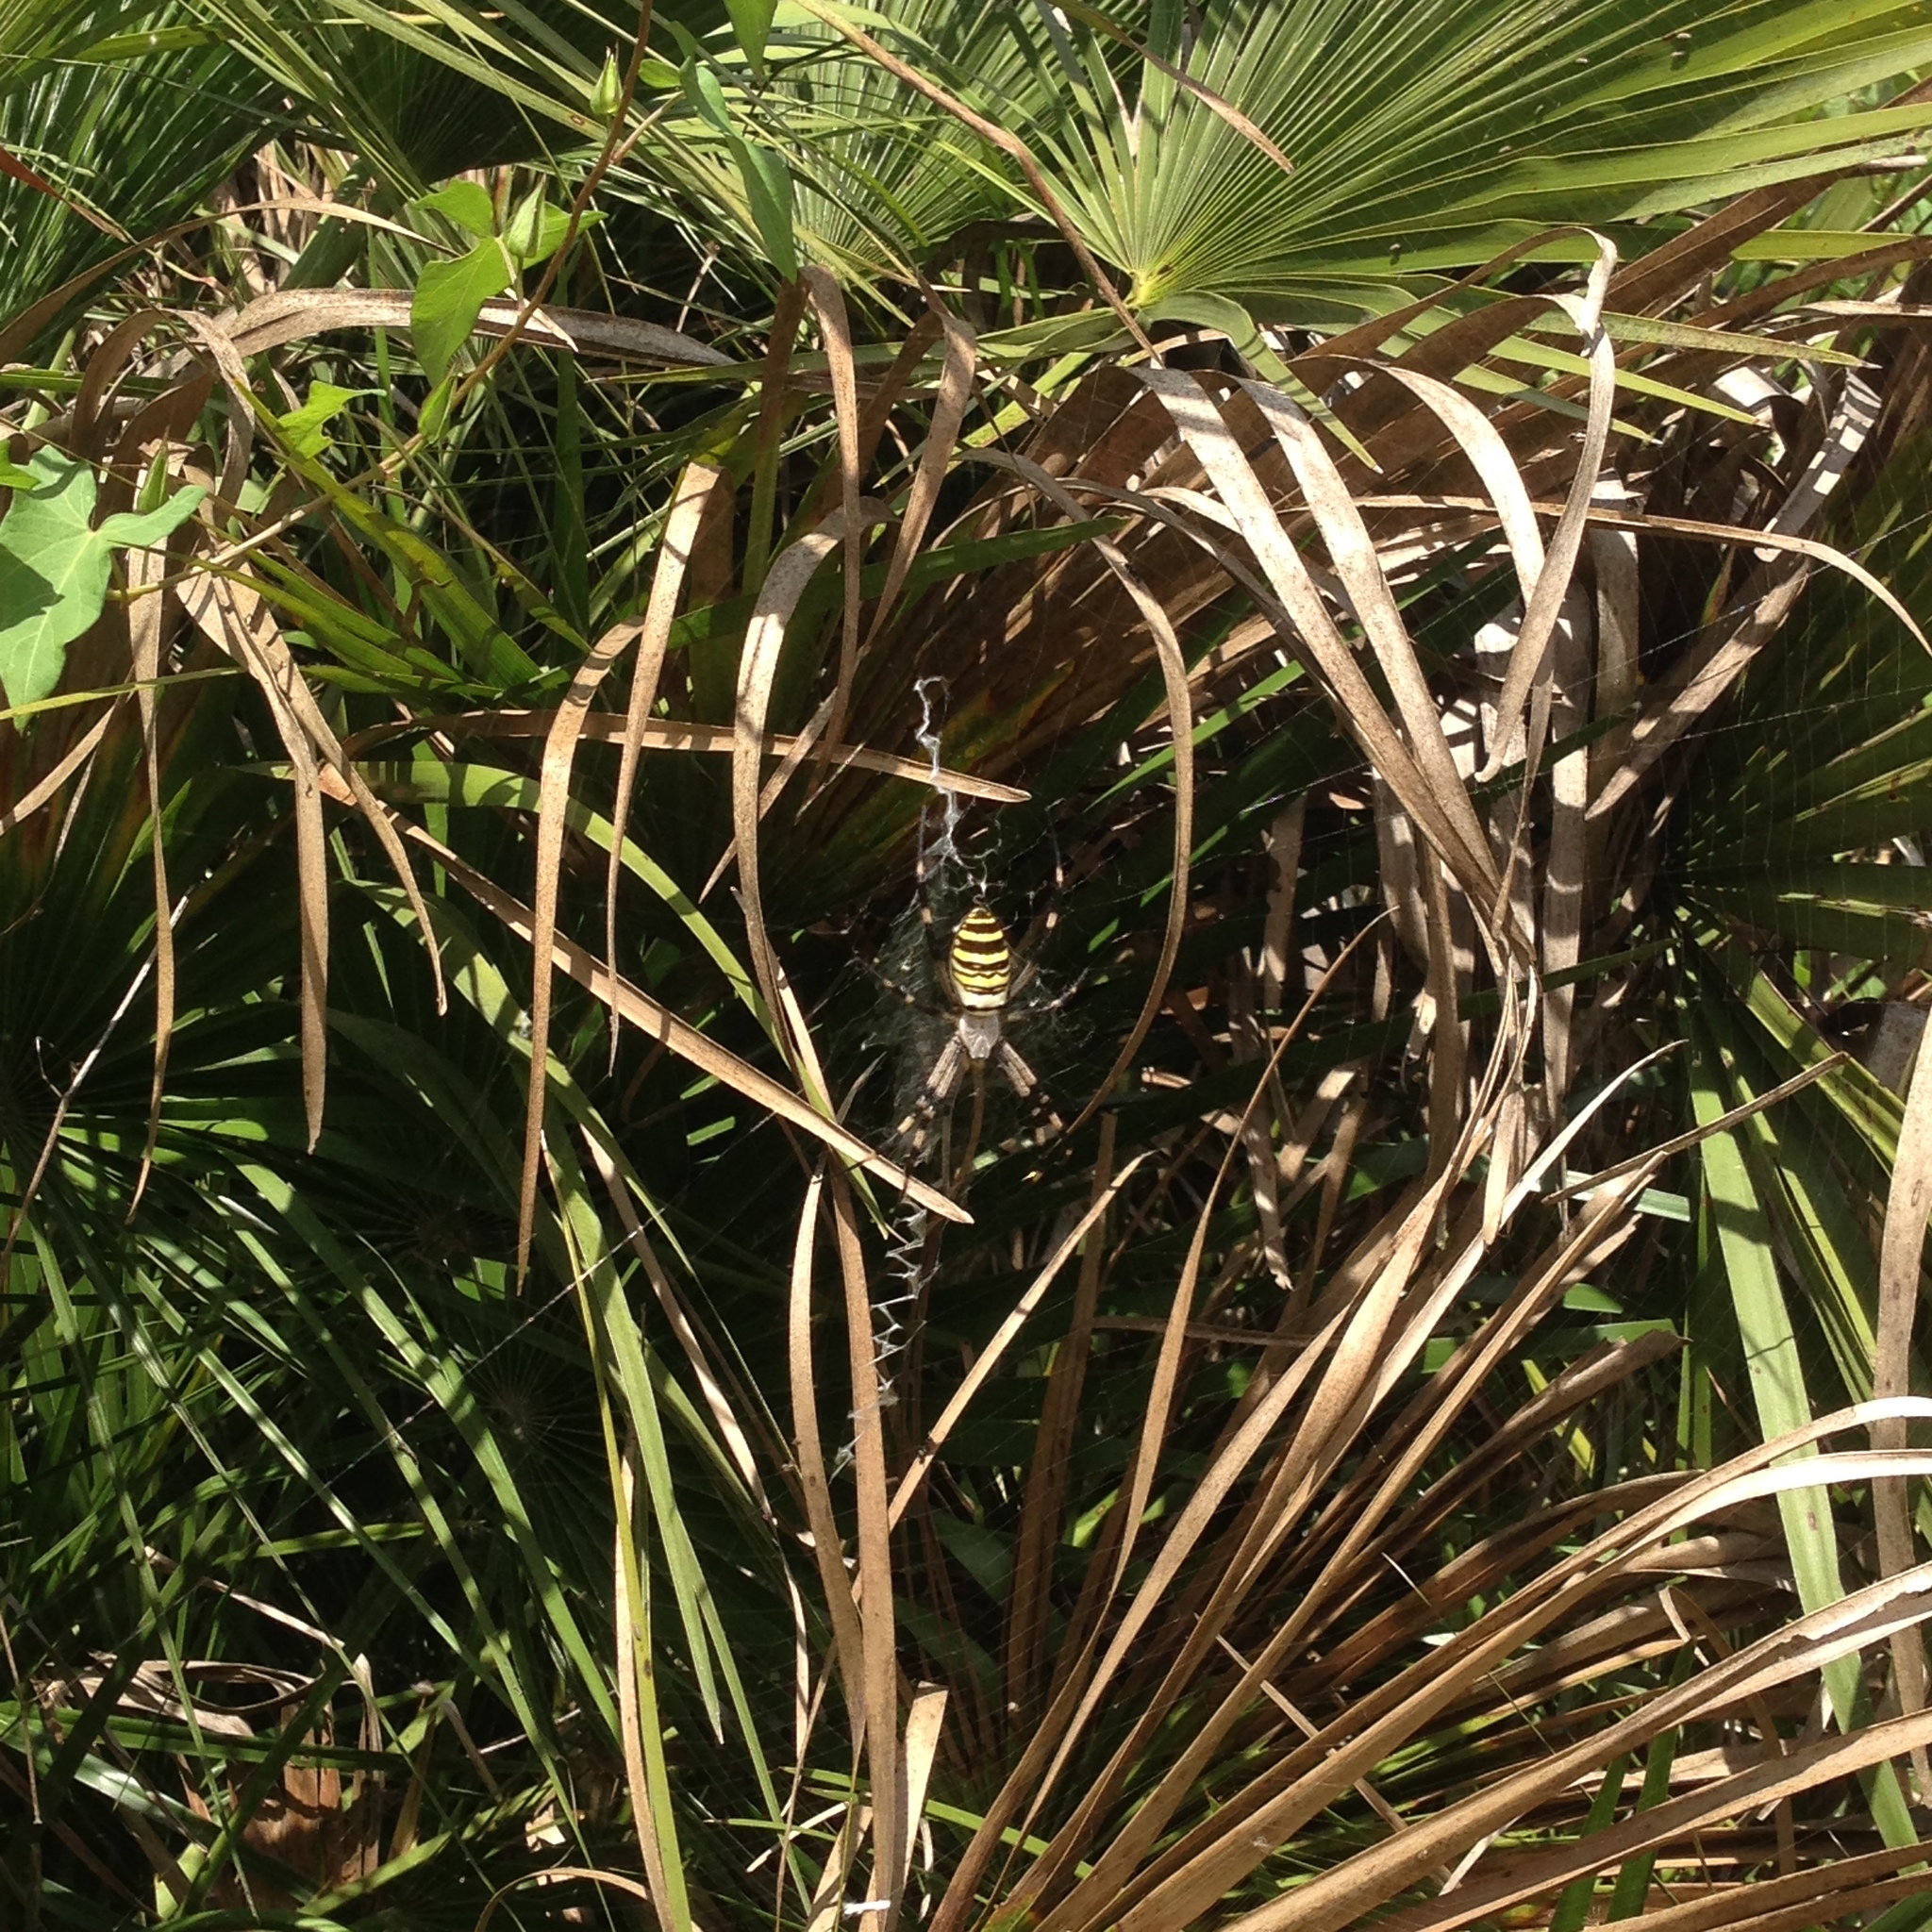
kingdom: Animalia
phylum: Arthropoda
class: Arachnida
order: Araneae
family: Araneidae
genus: Argiope
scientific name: Argiope bruennichi
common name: Wasp spider
